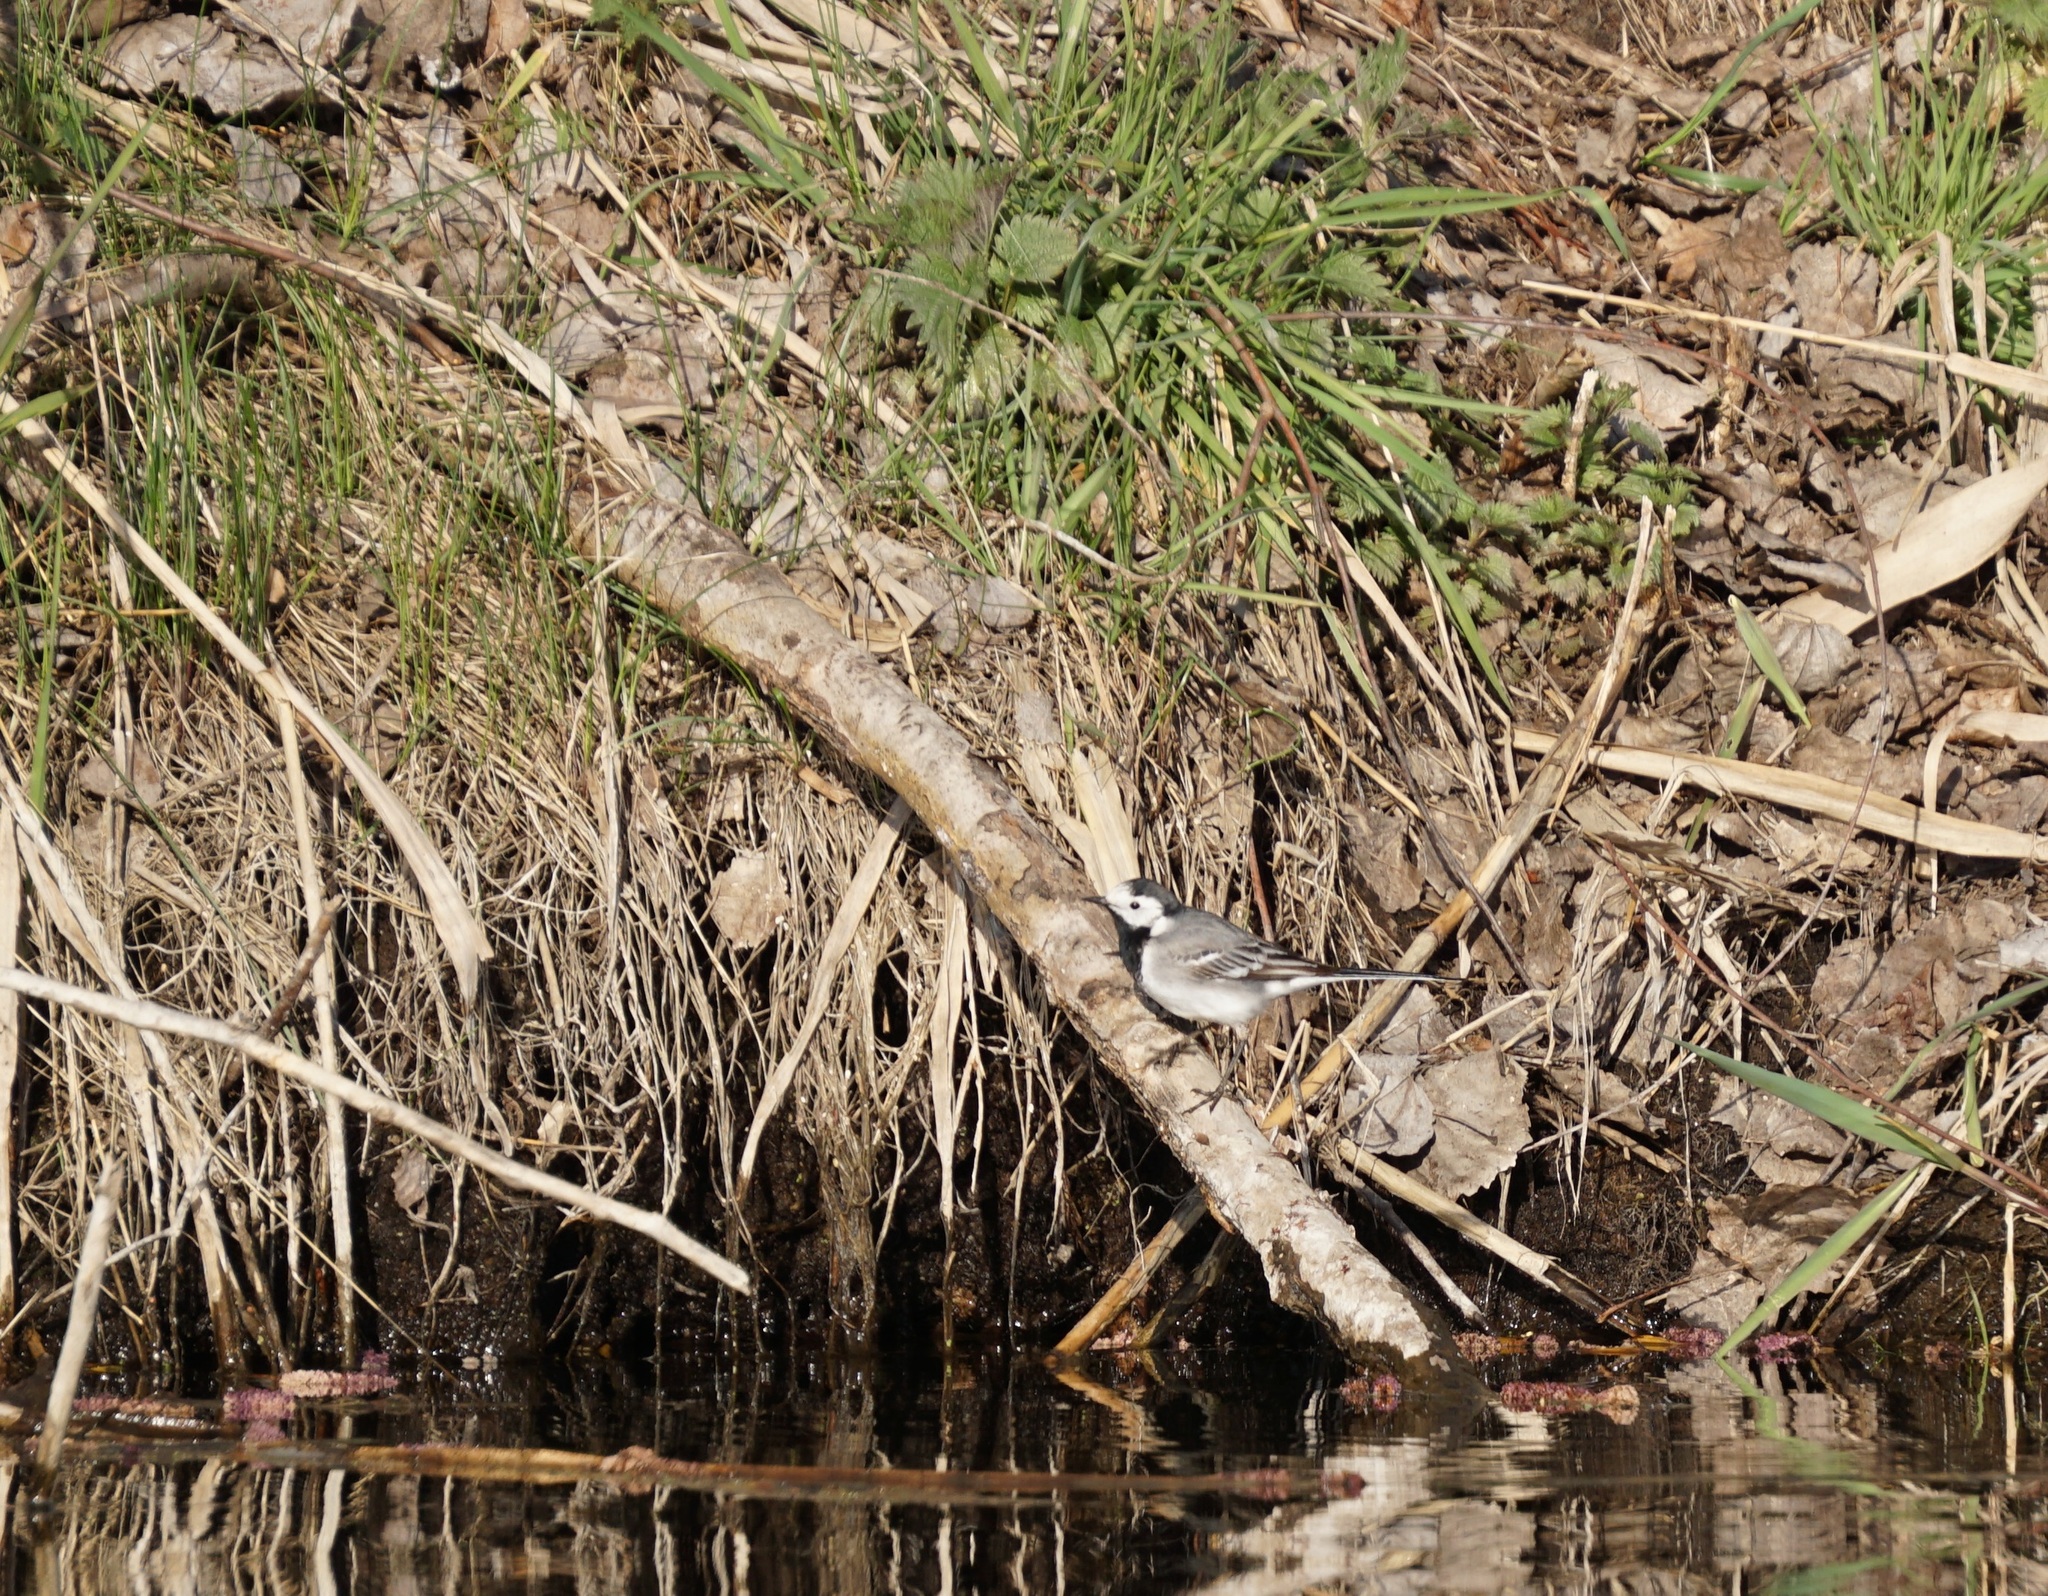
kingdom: Animalia
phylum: Chordata
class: Aves
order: Passeriformes
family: Motacillidae
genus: Motacilla
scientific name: Motacilla alba
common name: White wagtail
